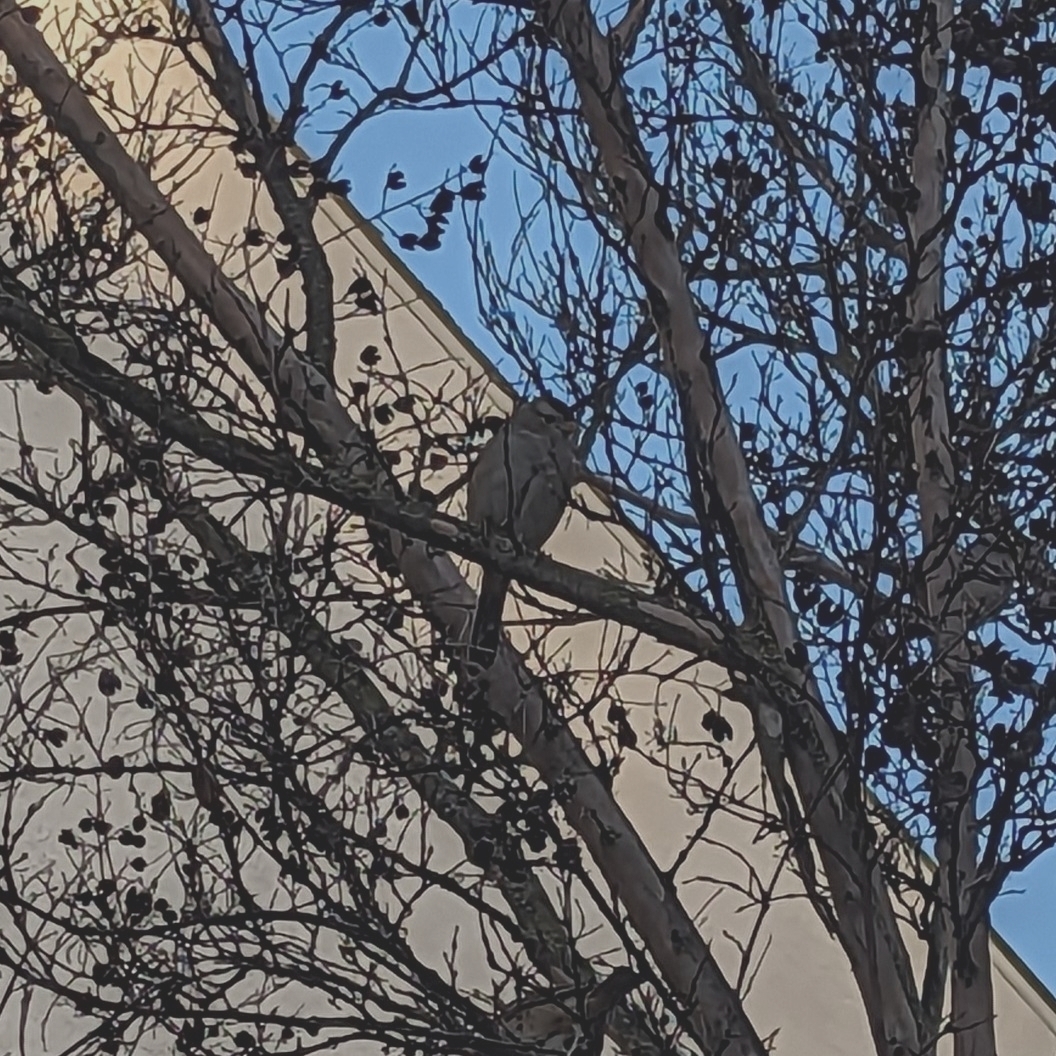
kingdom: Animalia
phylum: Chordata
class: Aves
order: Passeriformes
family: Passerellidae
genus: Zonotrichia
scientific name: Zonotrichia leucophrys
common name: White-crowned sparrow
